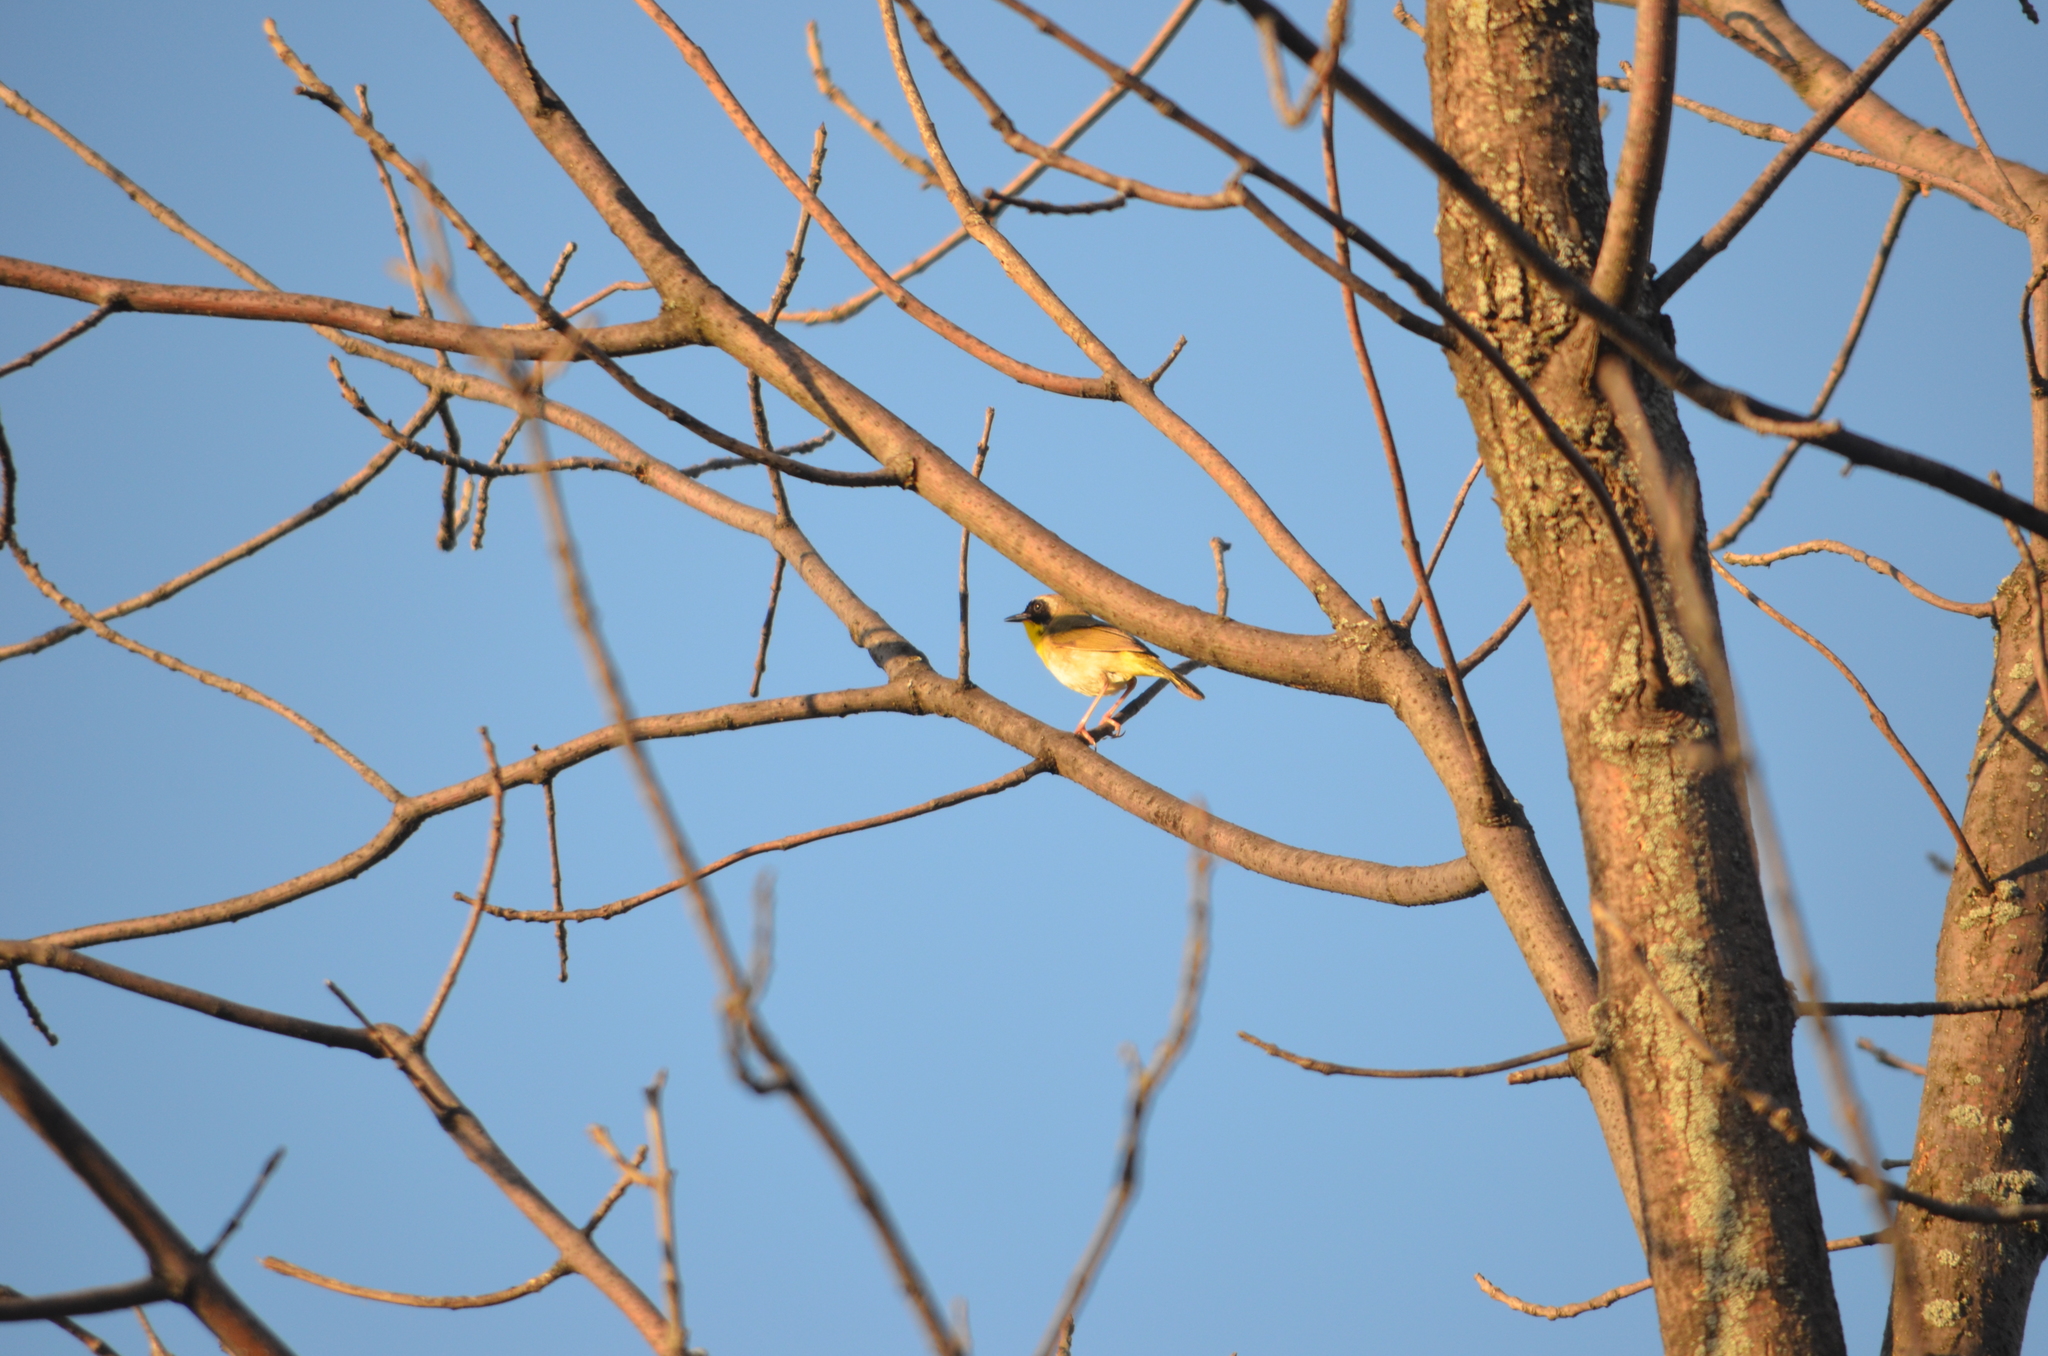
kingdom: Animalia
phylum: Chordata
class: Aves
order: Passeriformes
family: Parulidae
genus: Geothlypis
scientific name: Geothlypis trichas
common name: Common yellowthroat
